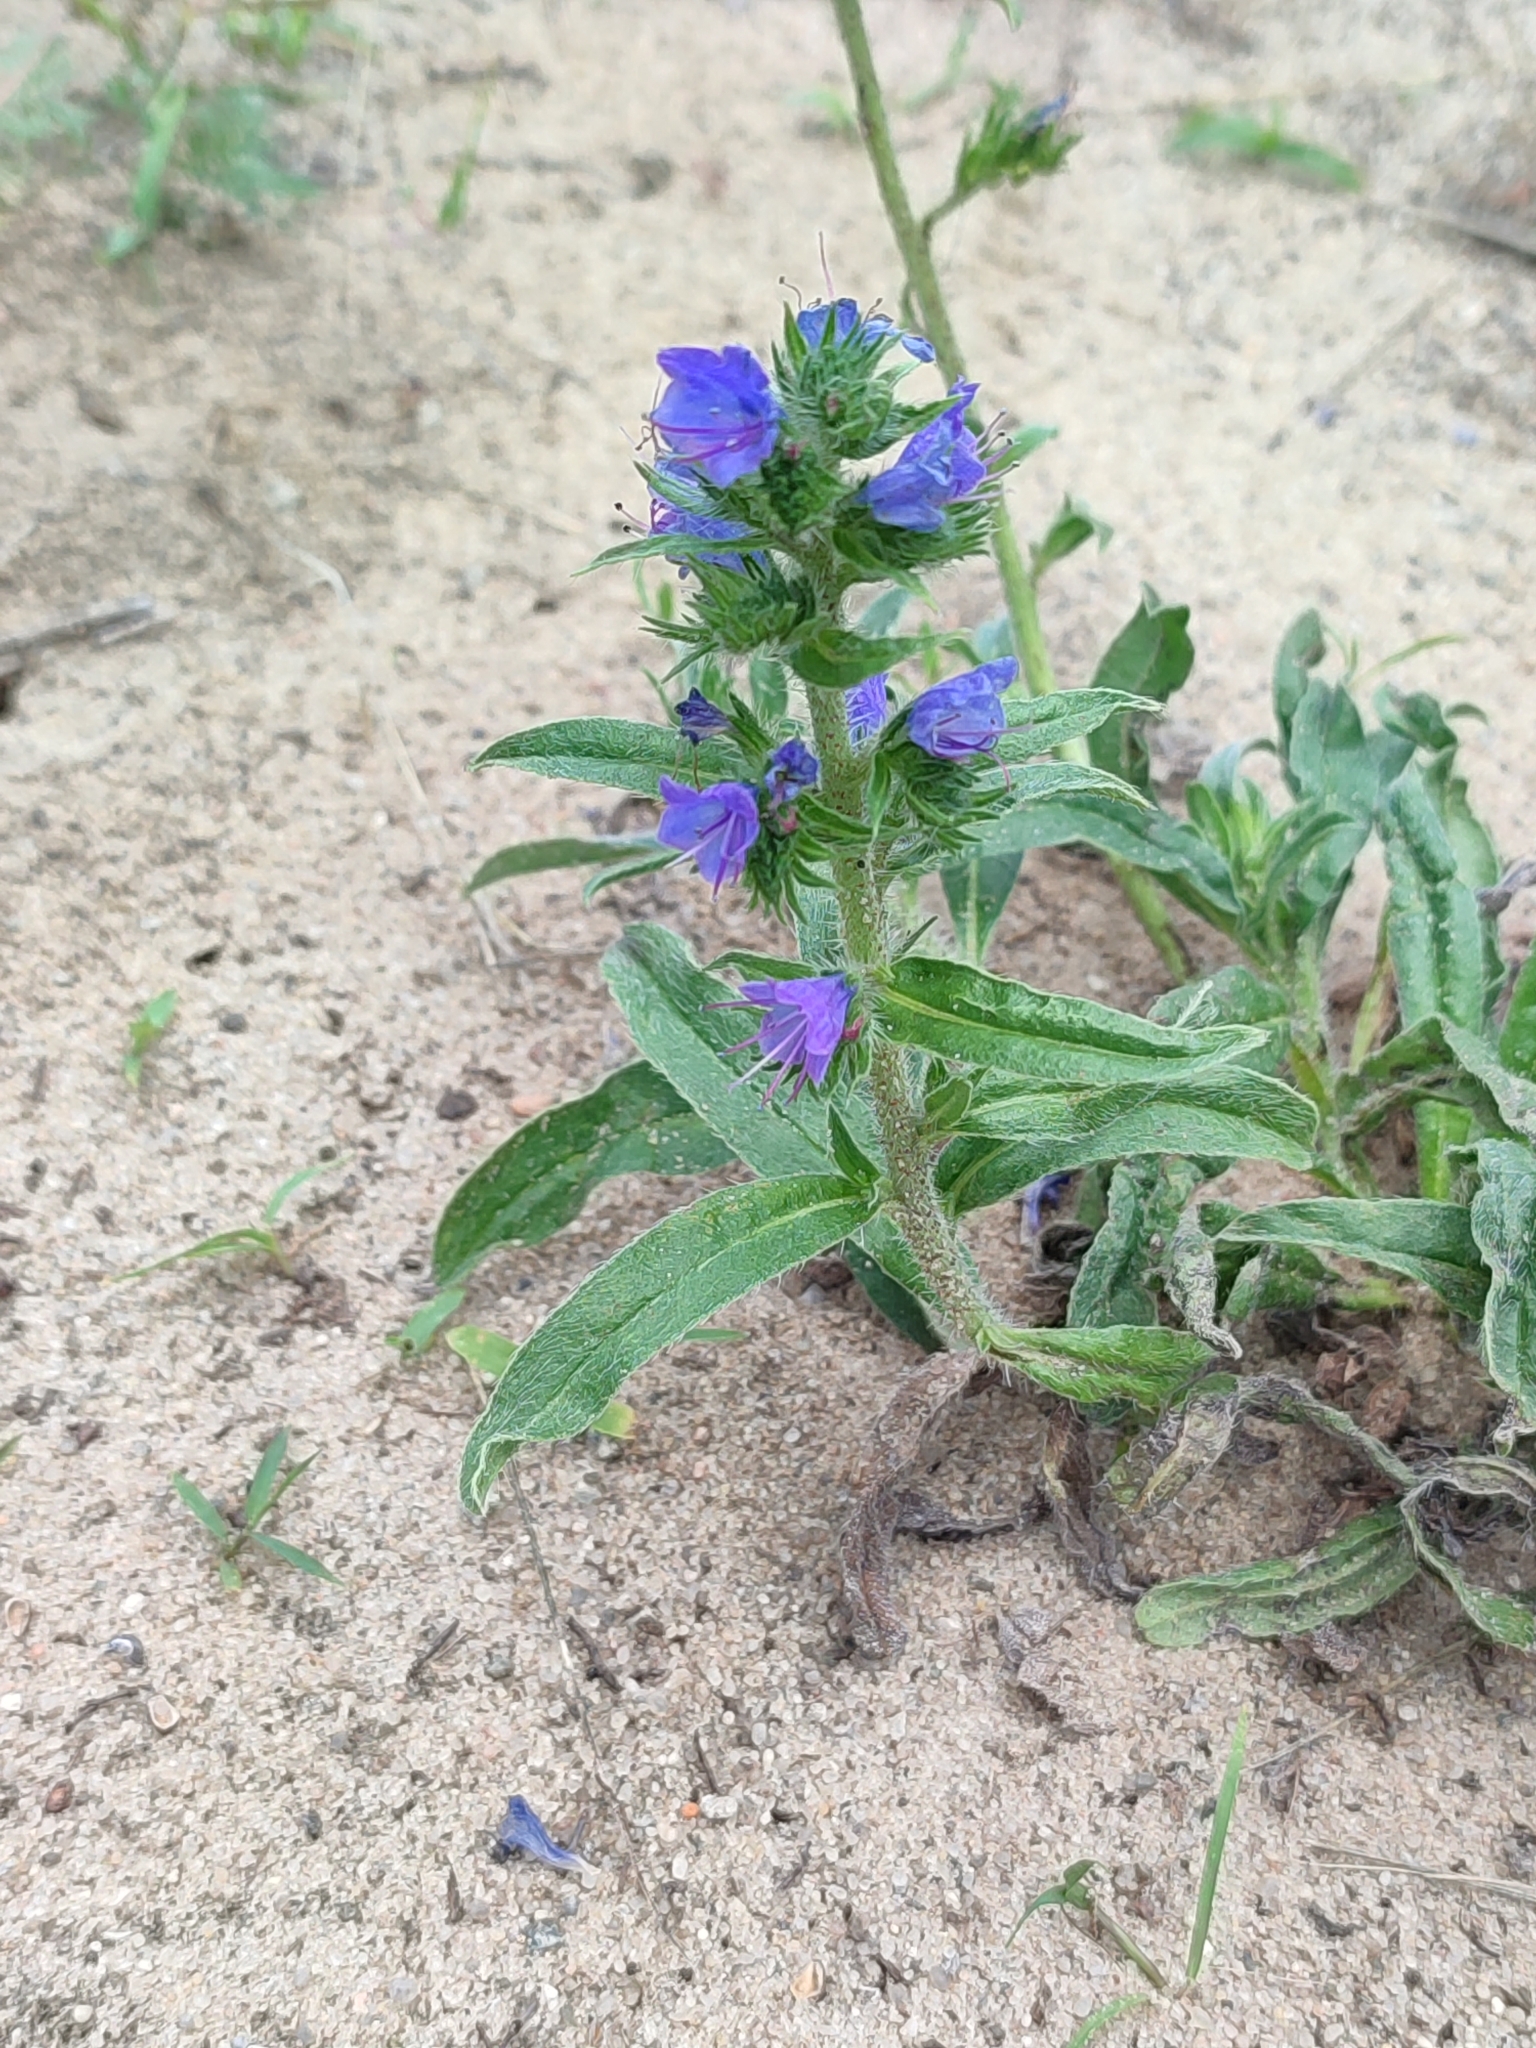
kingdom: Plantae
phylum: Tracheophyta
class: Magnoliopsida
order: Boraginales
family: Boraginaceae
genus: Echium
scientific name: Echium vulgare
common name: Common viper's bugloss
